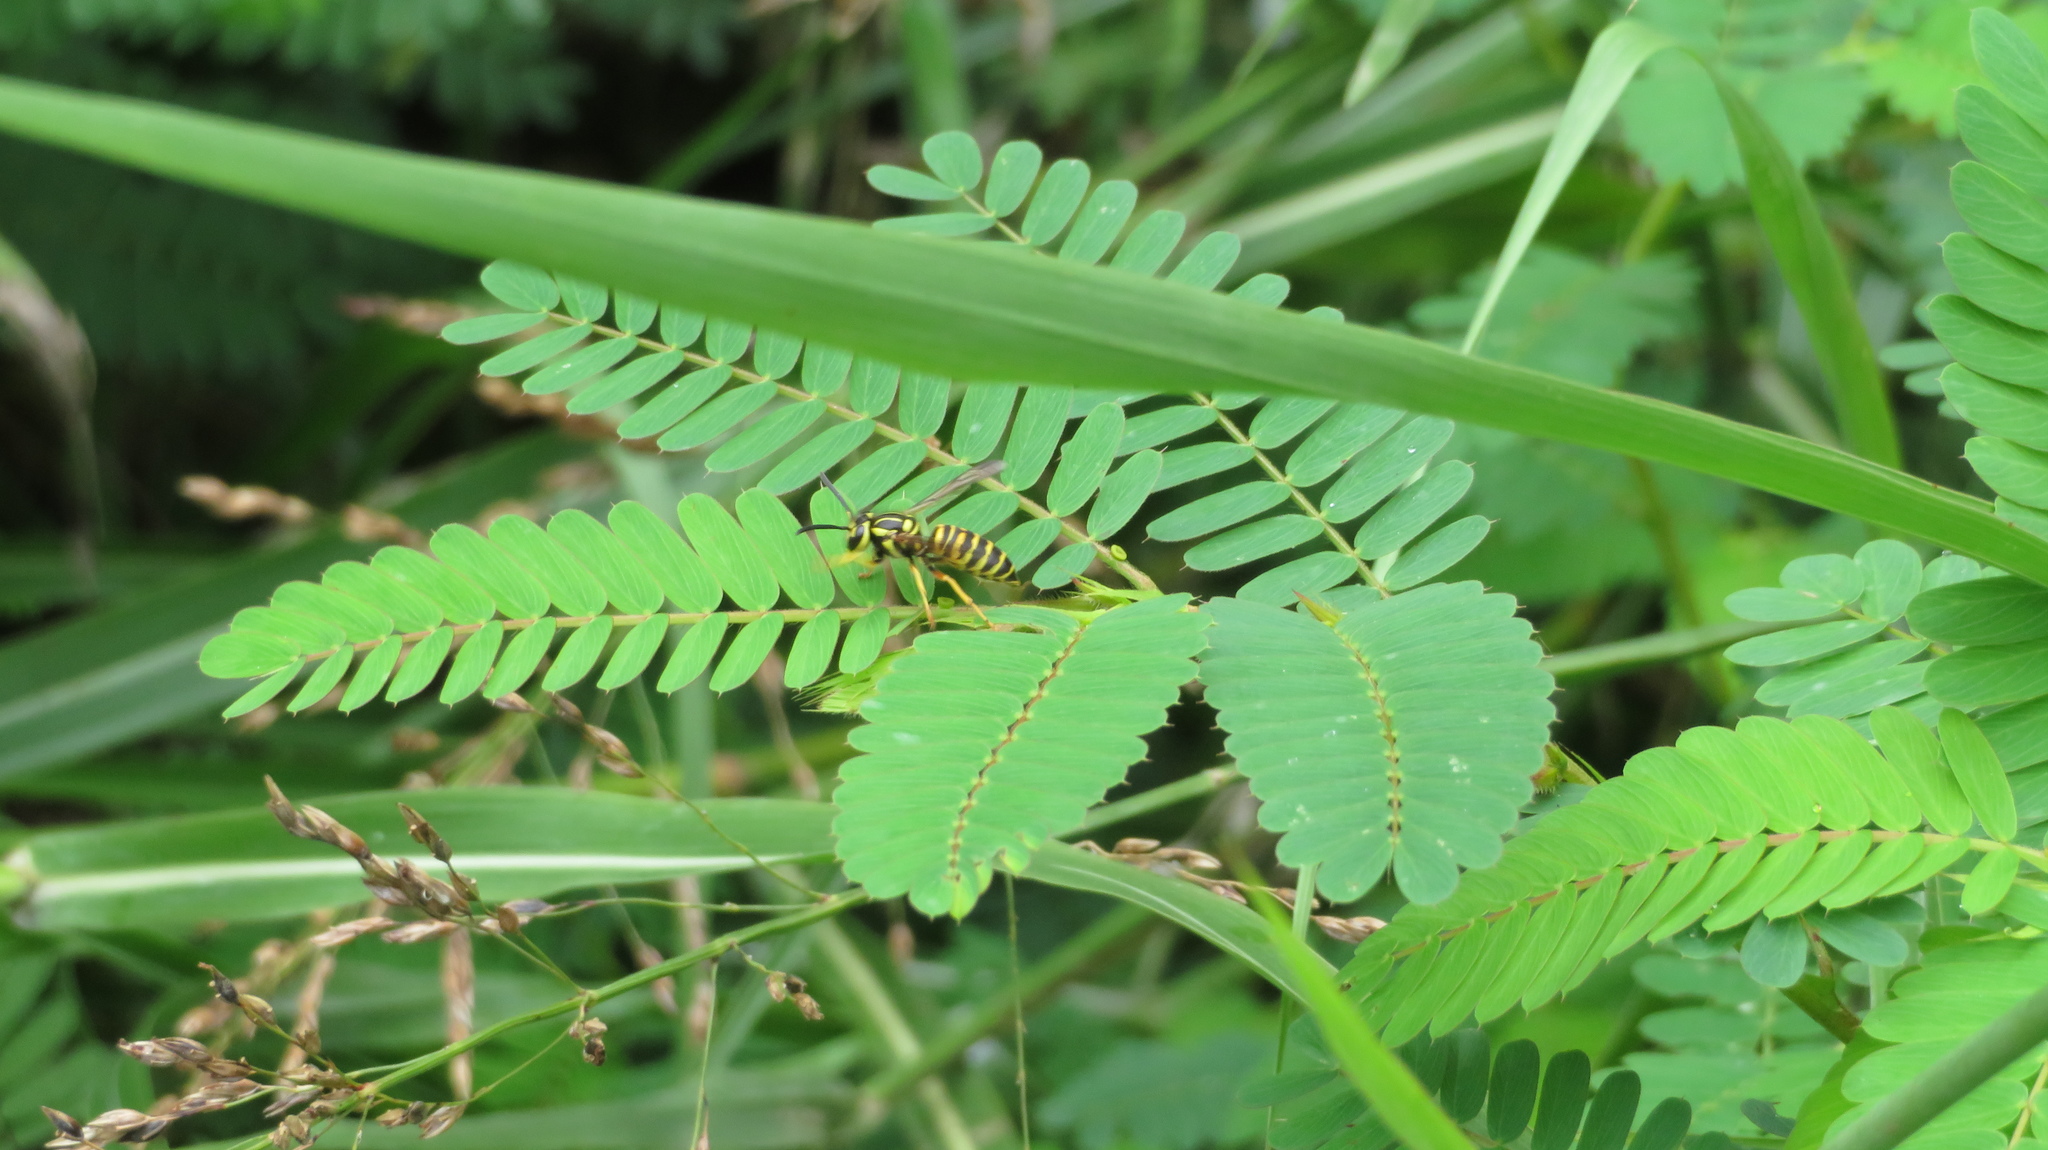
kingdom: Animalia
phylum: Arthropoda
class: Insecta
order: Hymenoptera
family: Vespidae
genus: Vespula
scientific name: Vespula squamosa
